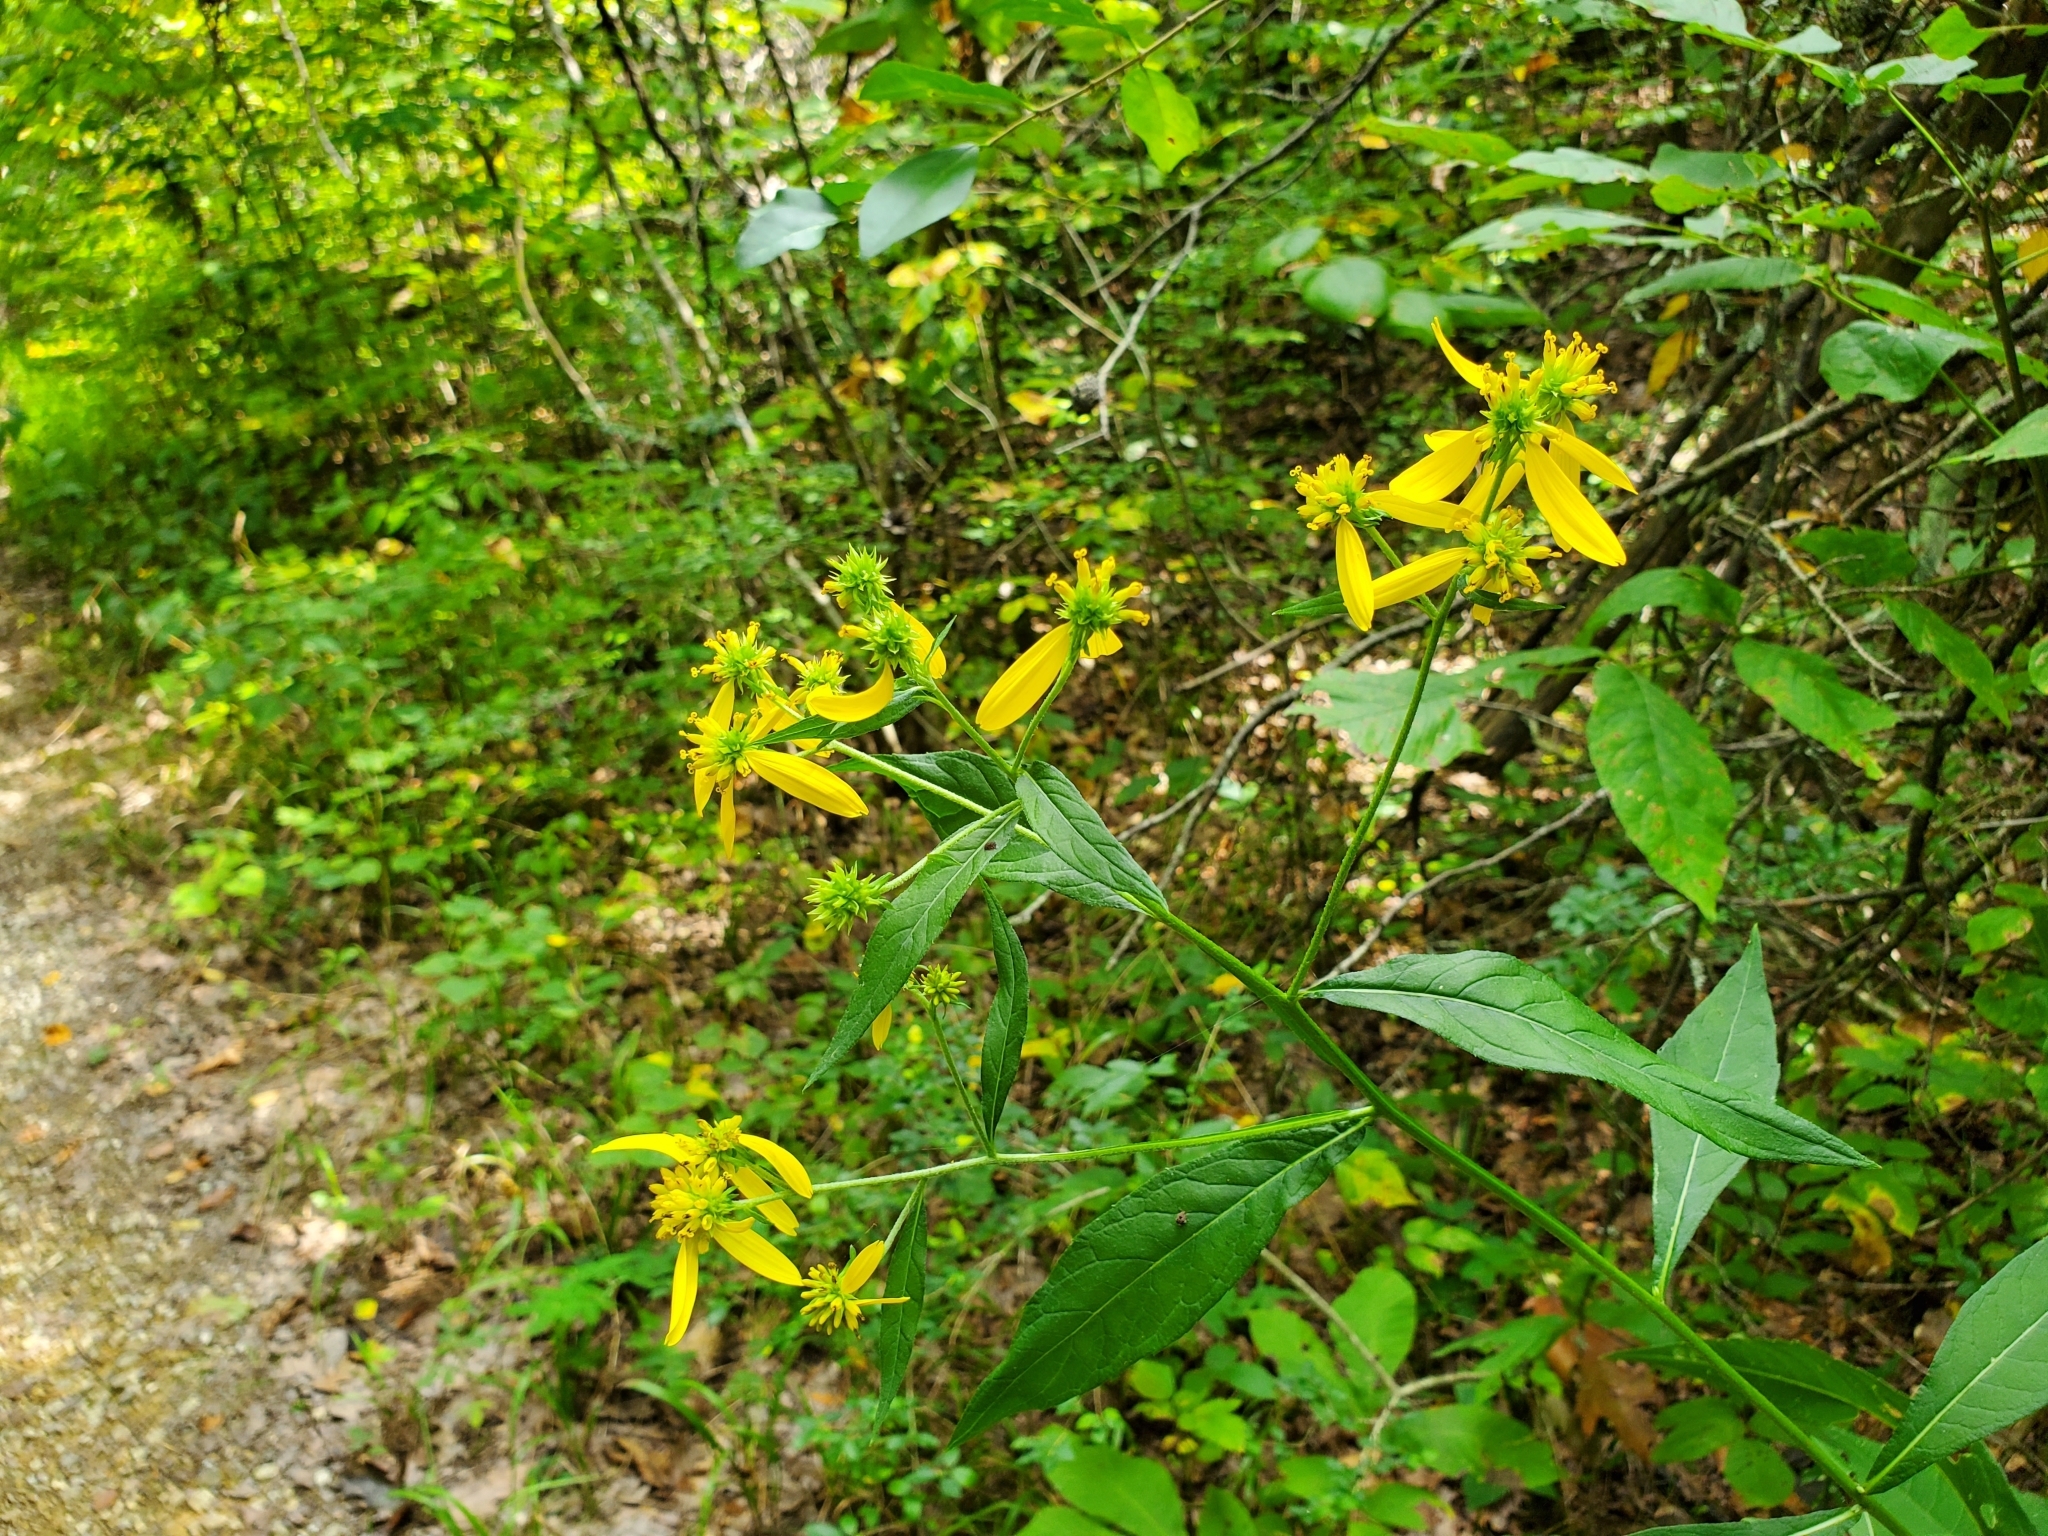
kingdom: Plantae
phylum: Tracheophyta
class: Magnoliopsida
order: Asterales
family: Asteraceae
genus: Verbesina
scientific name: Verbesina alternifolia
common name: Wingstem
